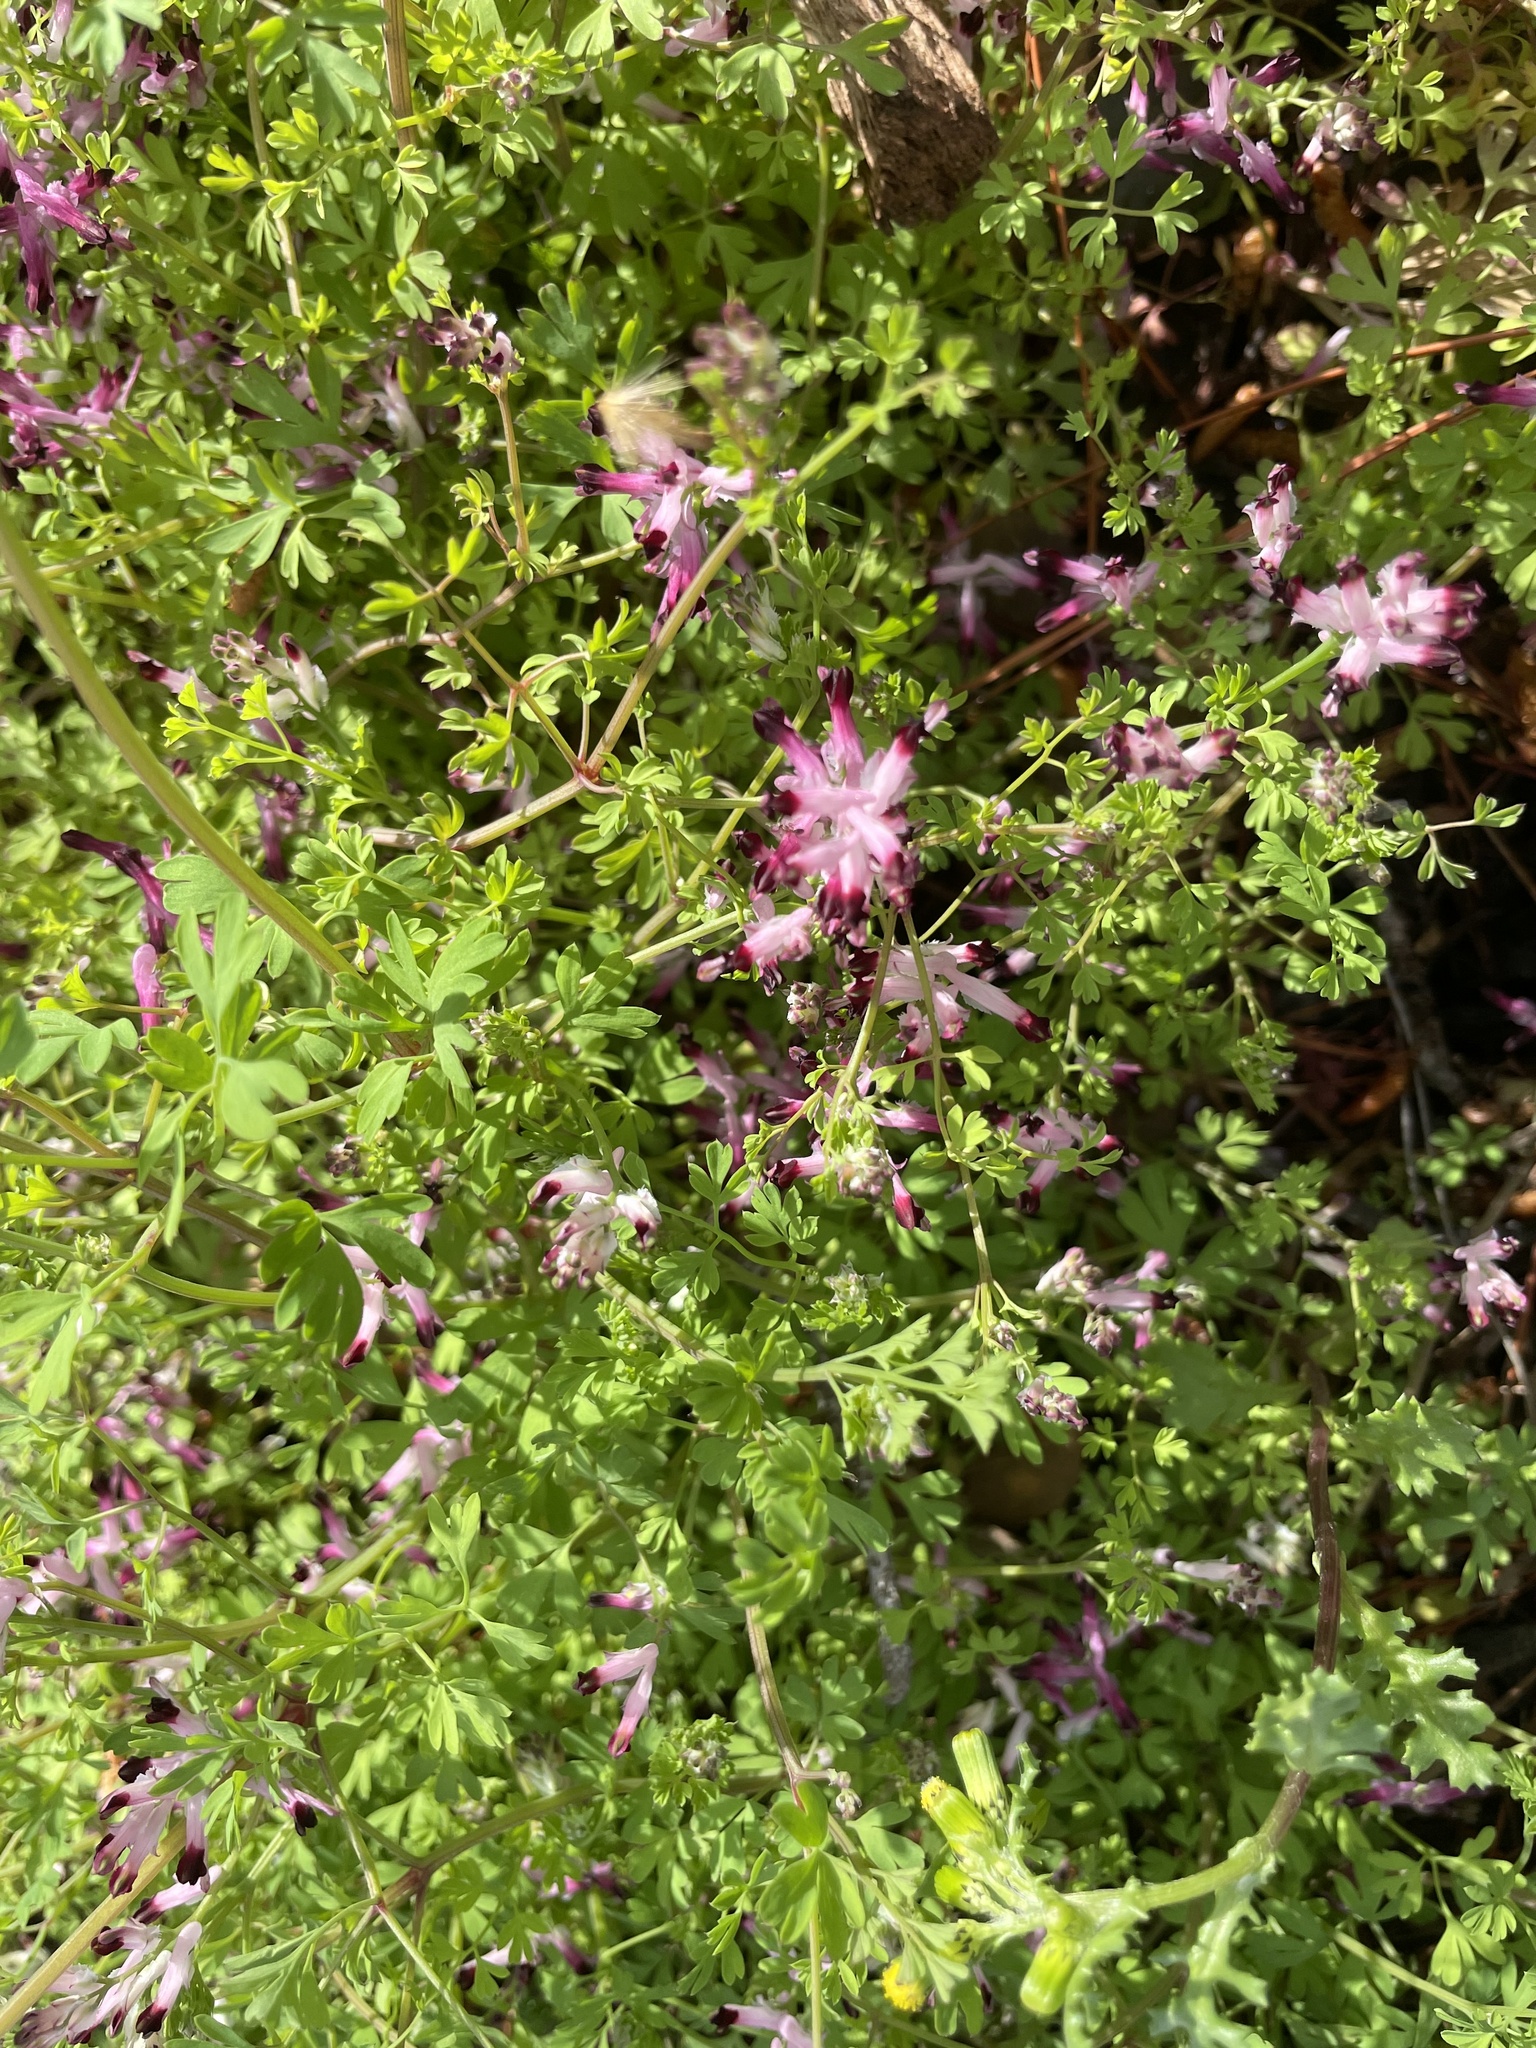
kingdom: Plantae
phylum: Tracheophyta
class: Magnoliopsida
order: Ranunculales
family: Papaveraceae
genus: Fumaria
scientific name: Fumaria muralis
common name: Common ramping-fumitory
